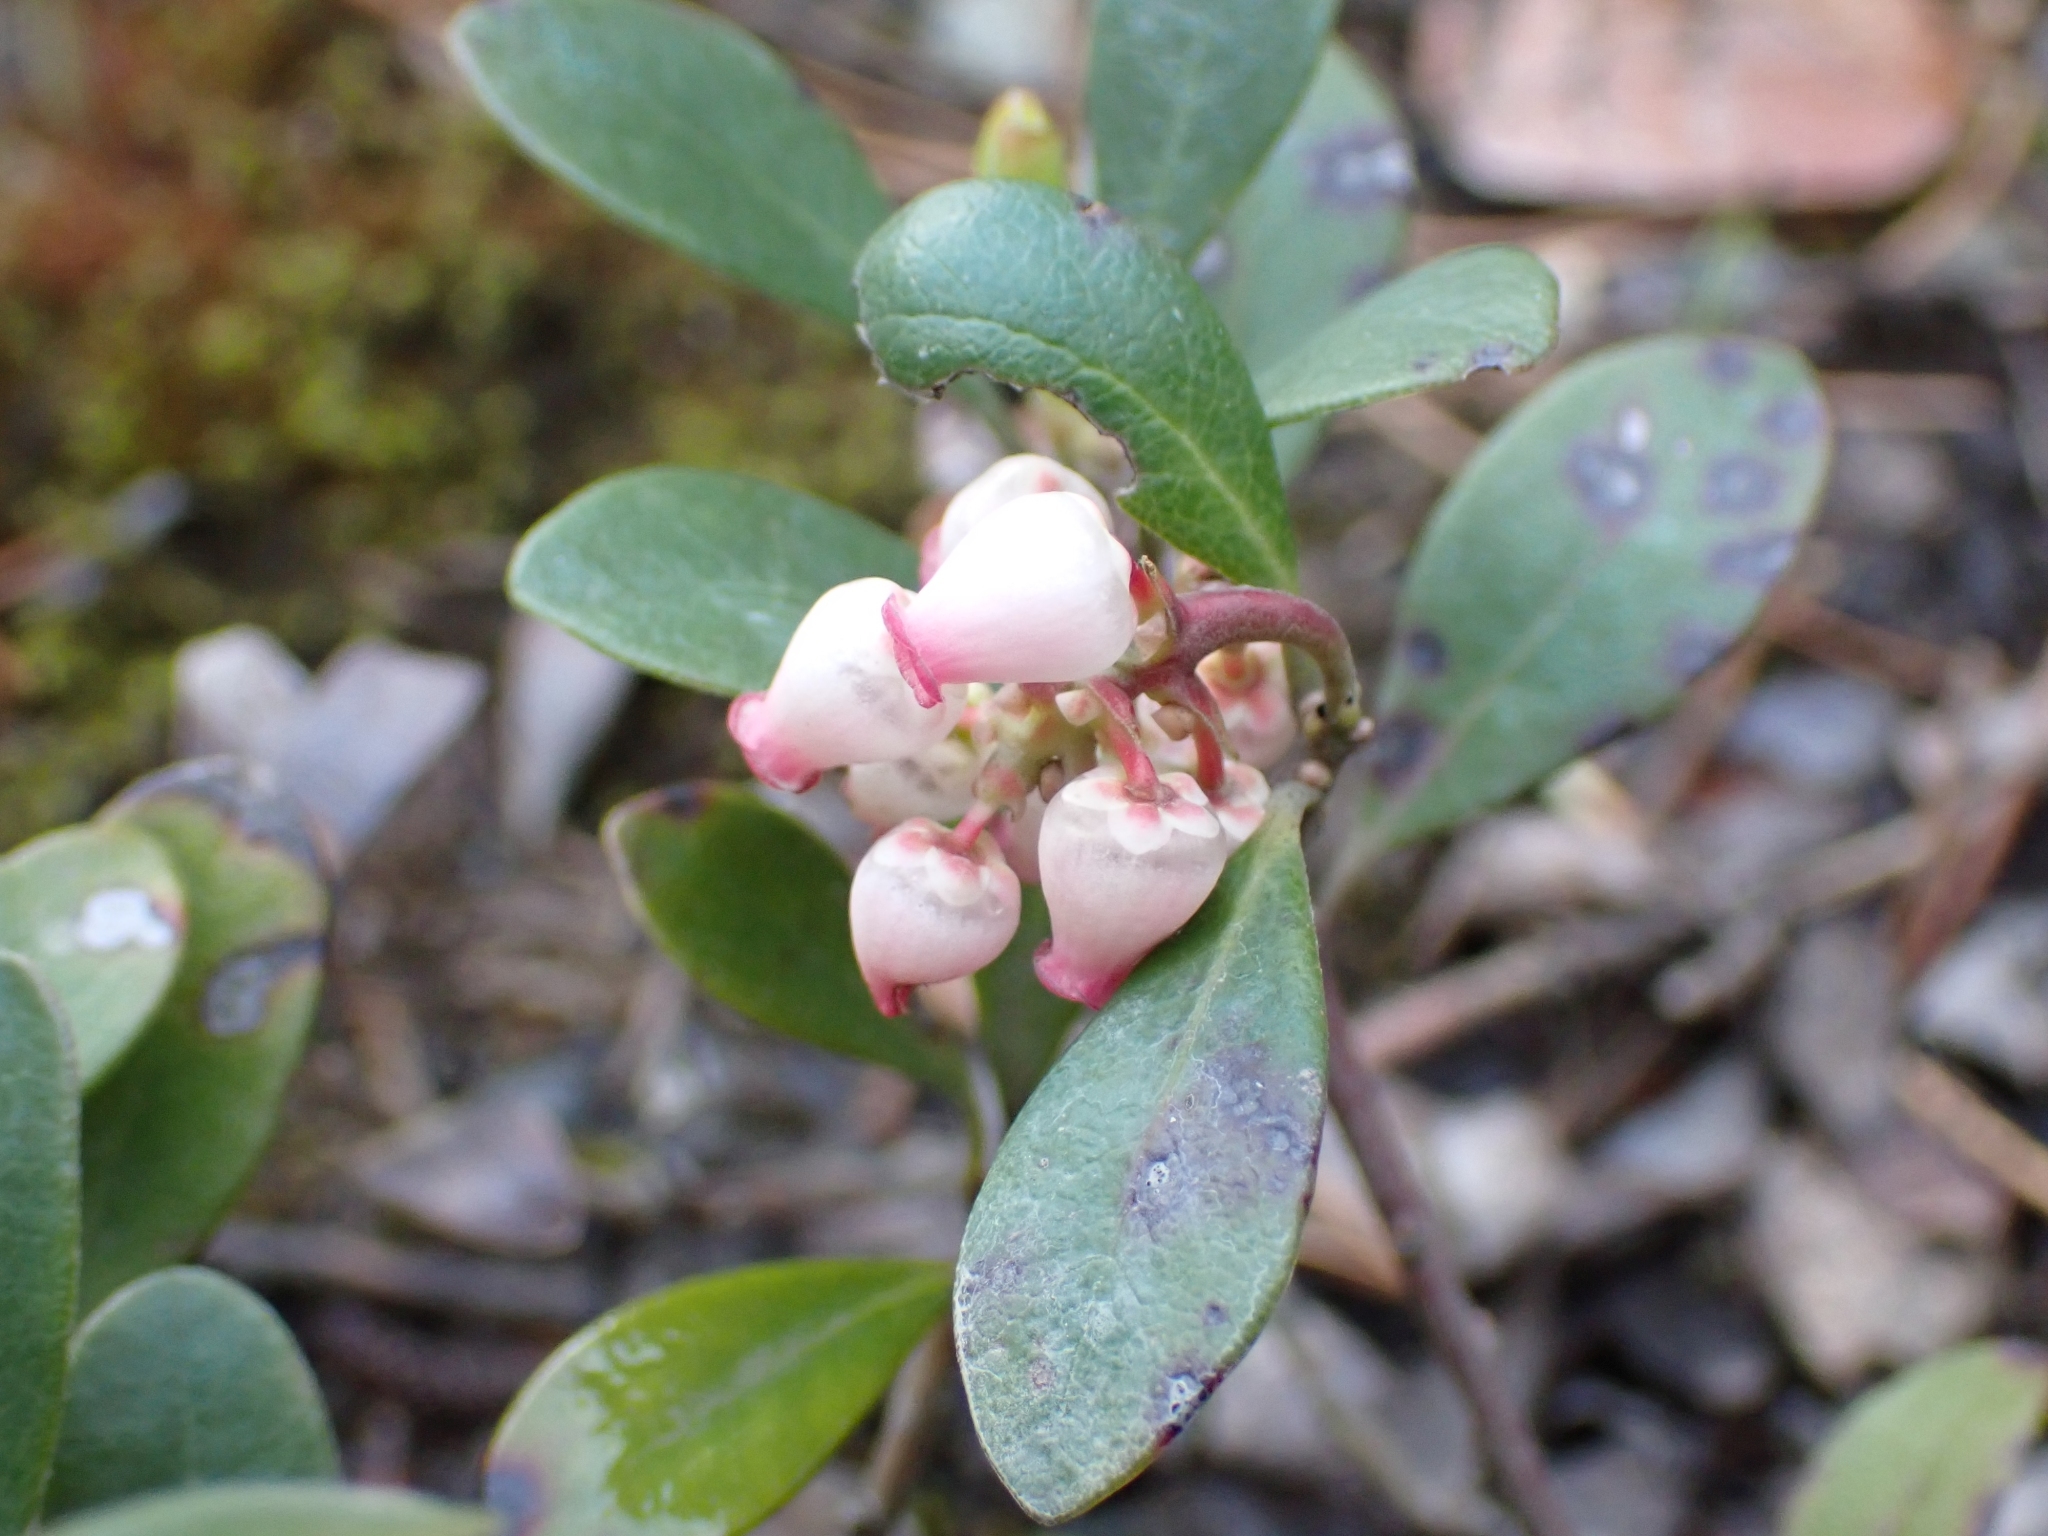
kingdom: Plantae
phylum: Tracheophyta
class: Magnoliopsida
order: Ericales
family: Ericaceae
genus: Arctostaphylos
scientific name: Arctostaphylos uva-ursi
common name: Bearberry
